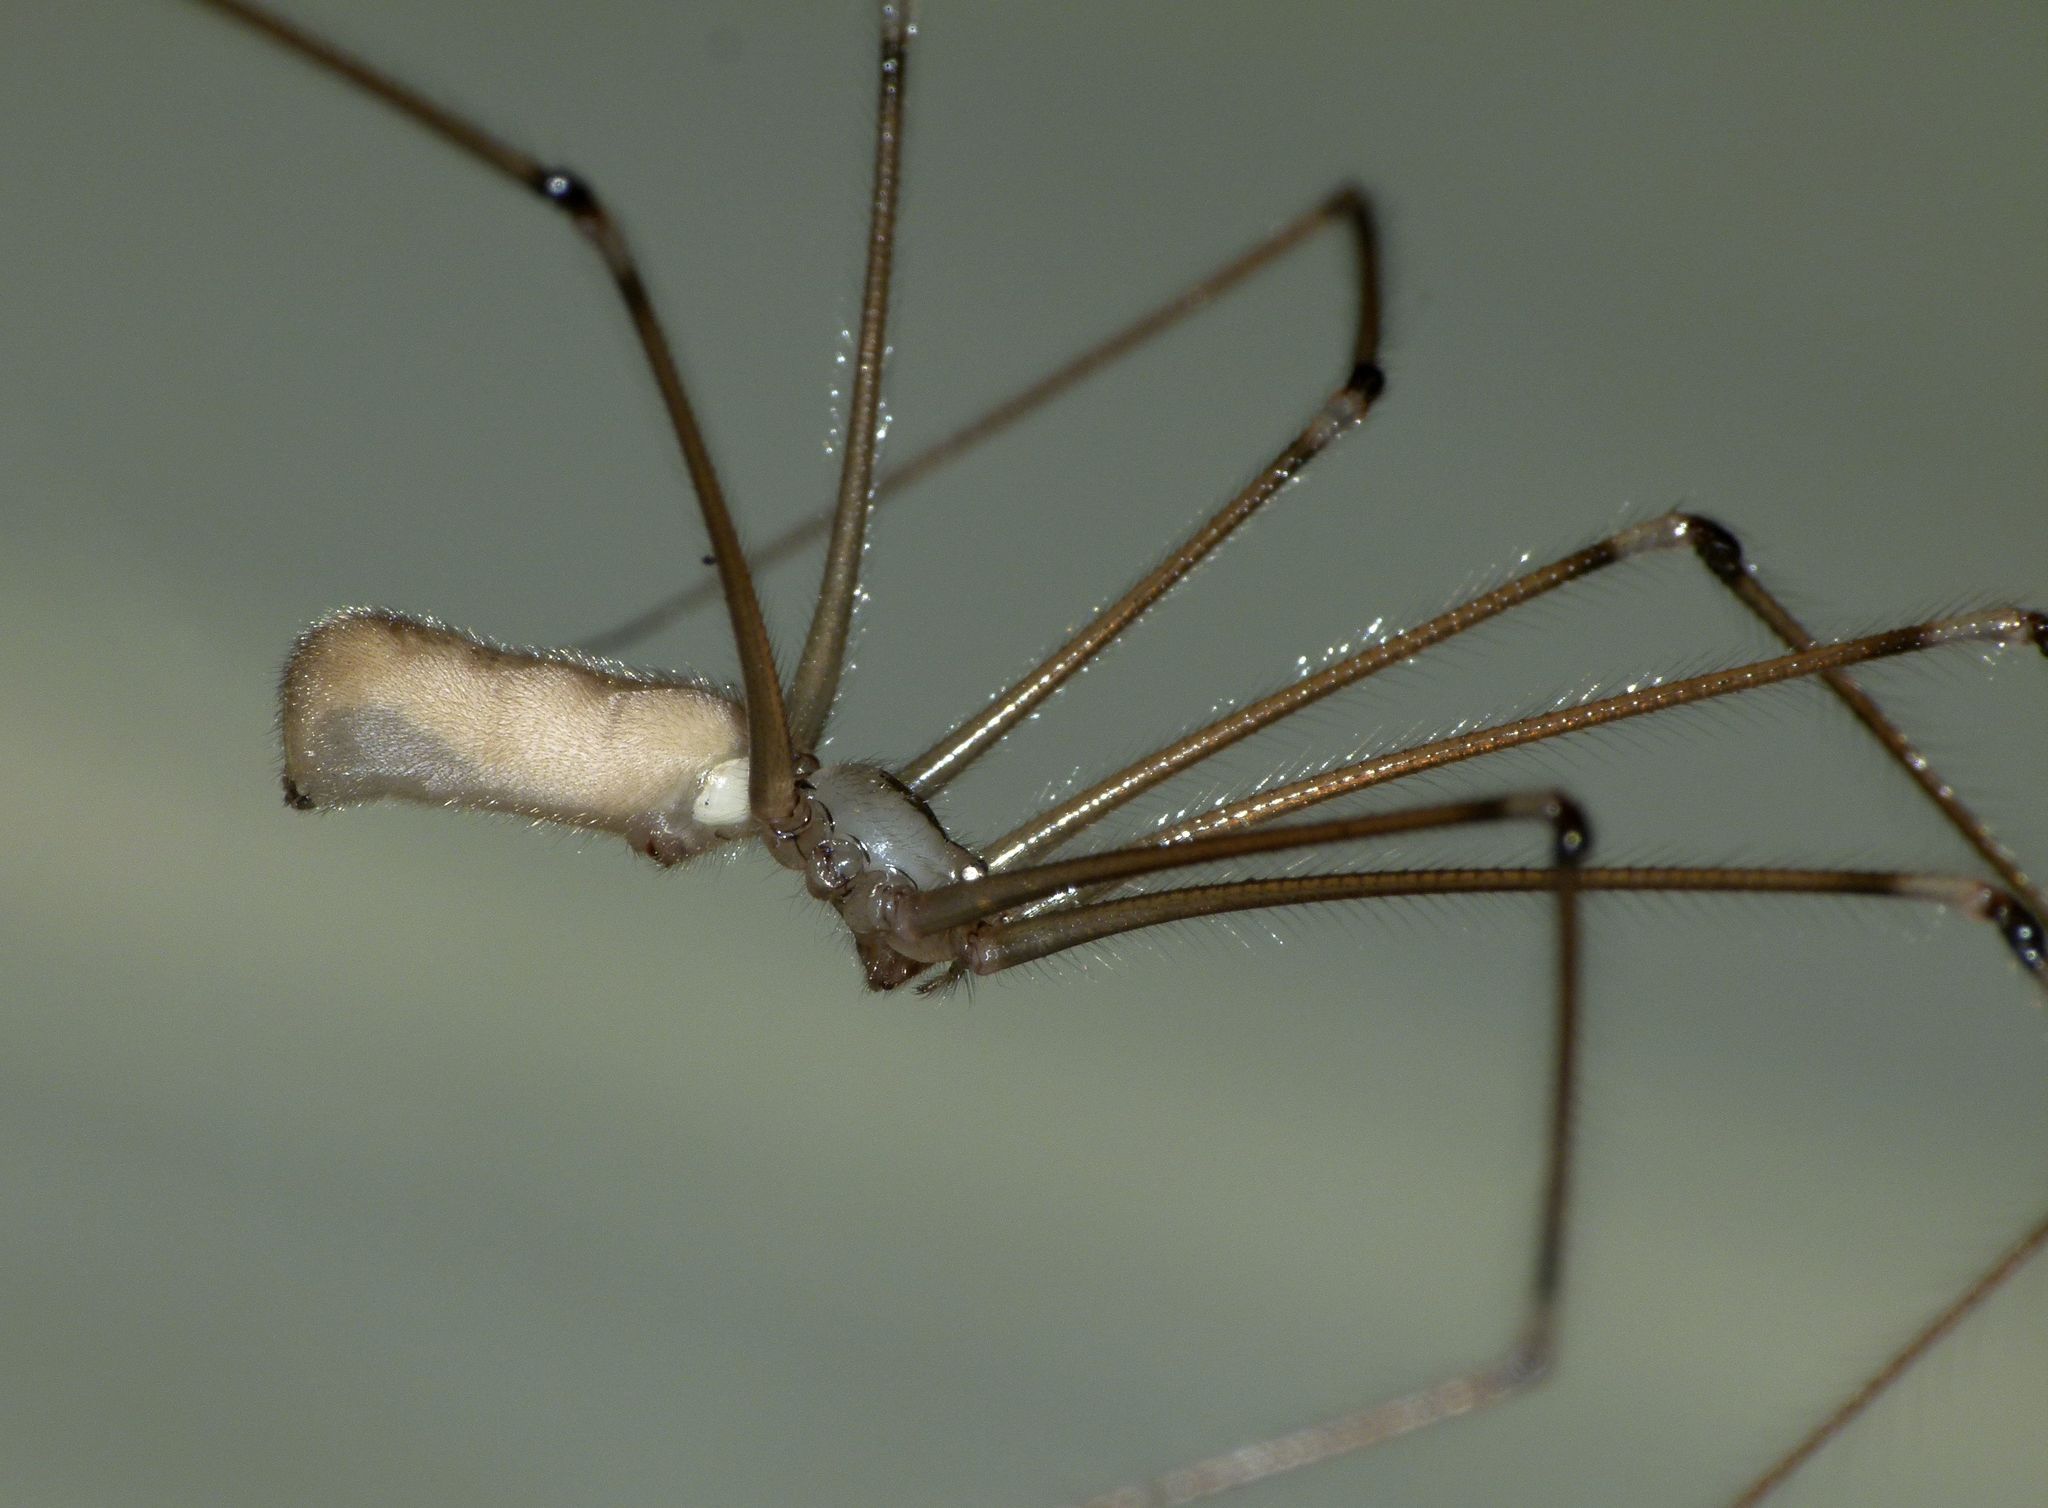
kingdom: Animalia
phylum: Arthropoda
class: Arachnida
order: Araneae
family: Pholcidae
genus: Pholcus
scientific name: Pholcus phalangioides
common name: Longbodied cellar spider
